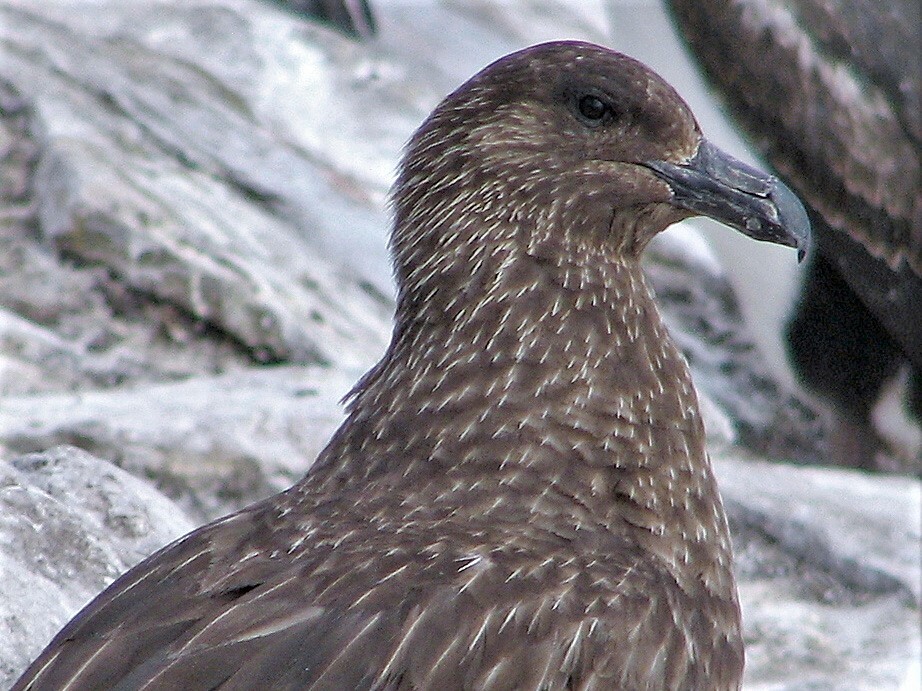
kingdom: Animalia
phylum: Chordata
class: Aves
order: Charadriiformes
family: Stercorariidae
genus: Stercorarius
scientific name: Stercorarius antarcticus
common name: Brown skua
